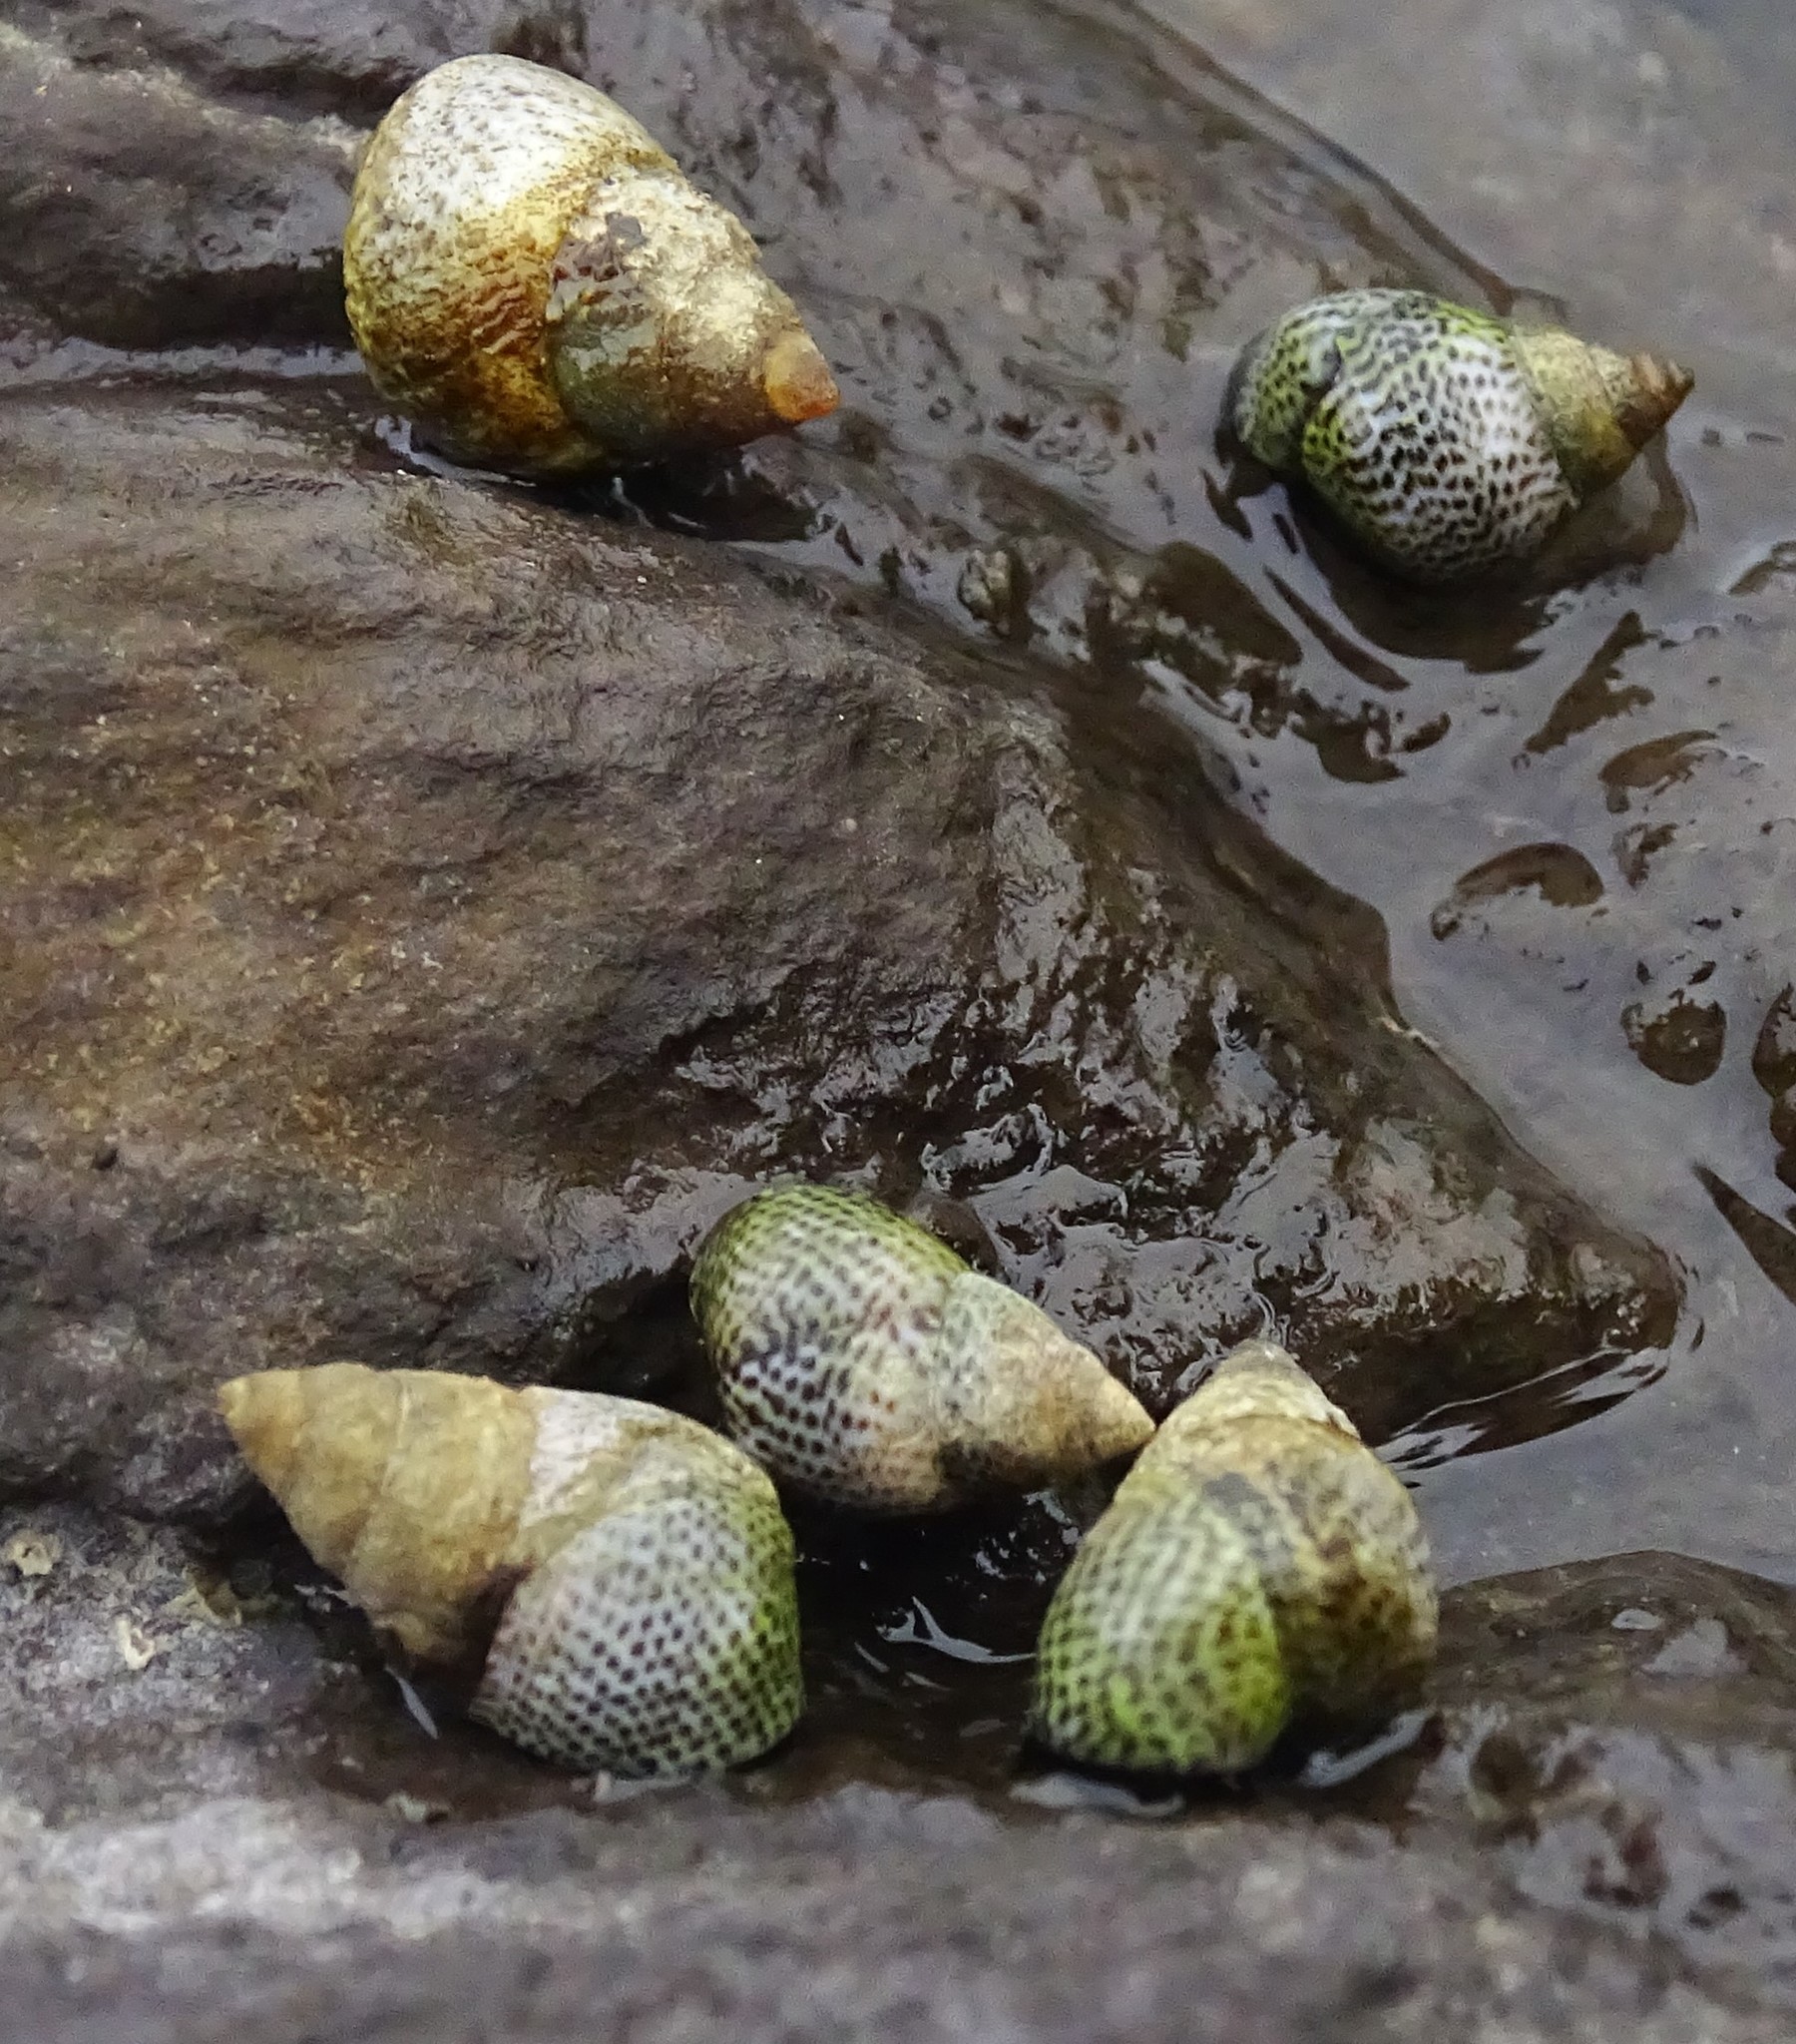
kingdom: Animalia
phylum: Mollusca
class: Gastropoda
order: Littorinimorpha
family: Littorinidae
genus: Littoraria
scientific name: Littoraria pintado
